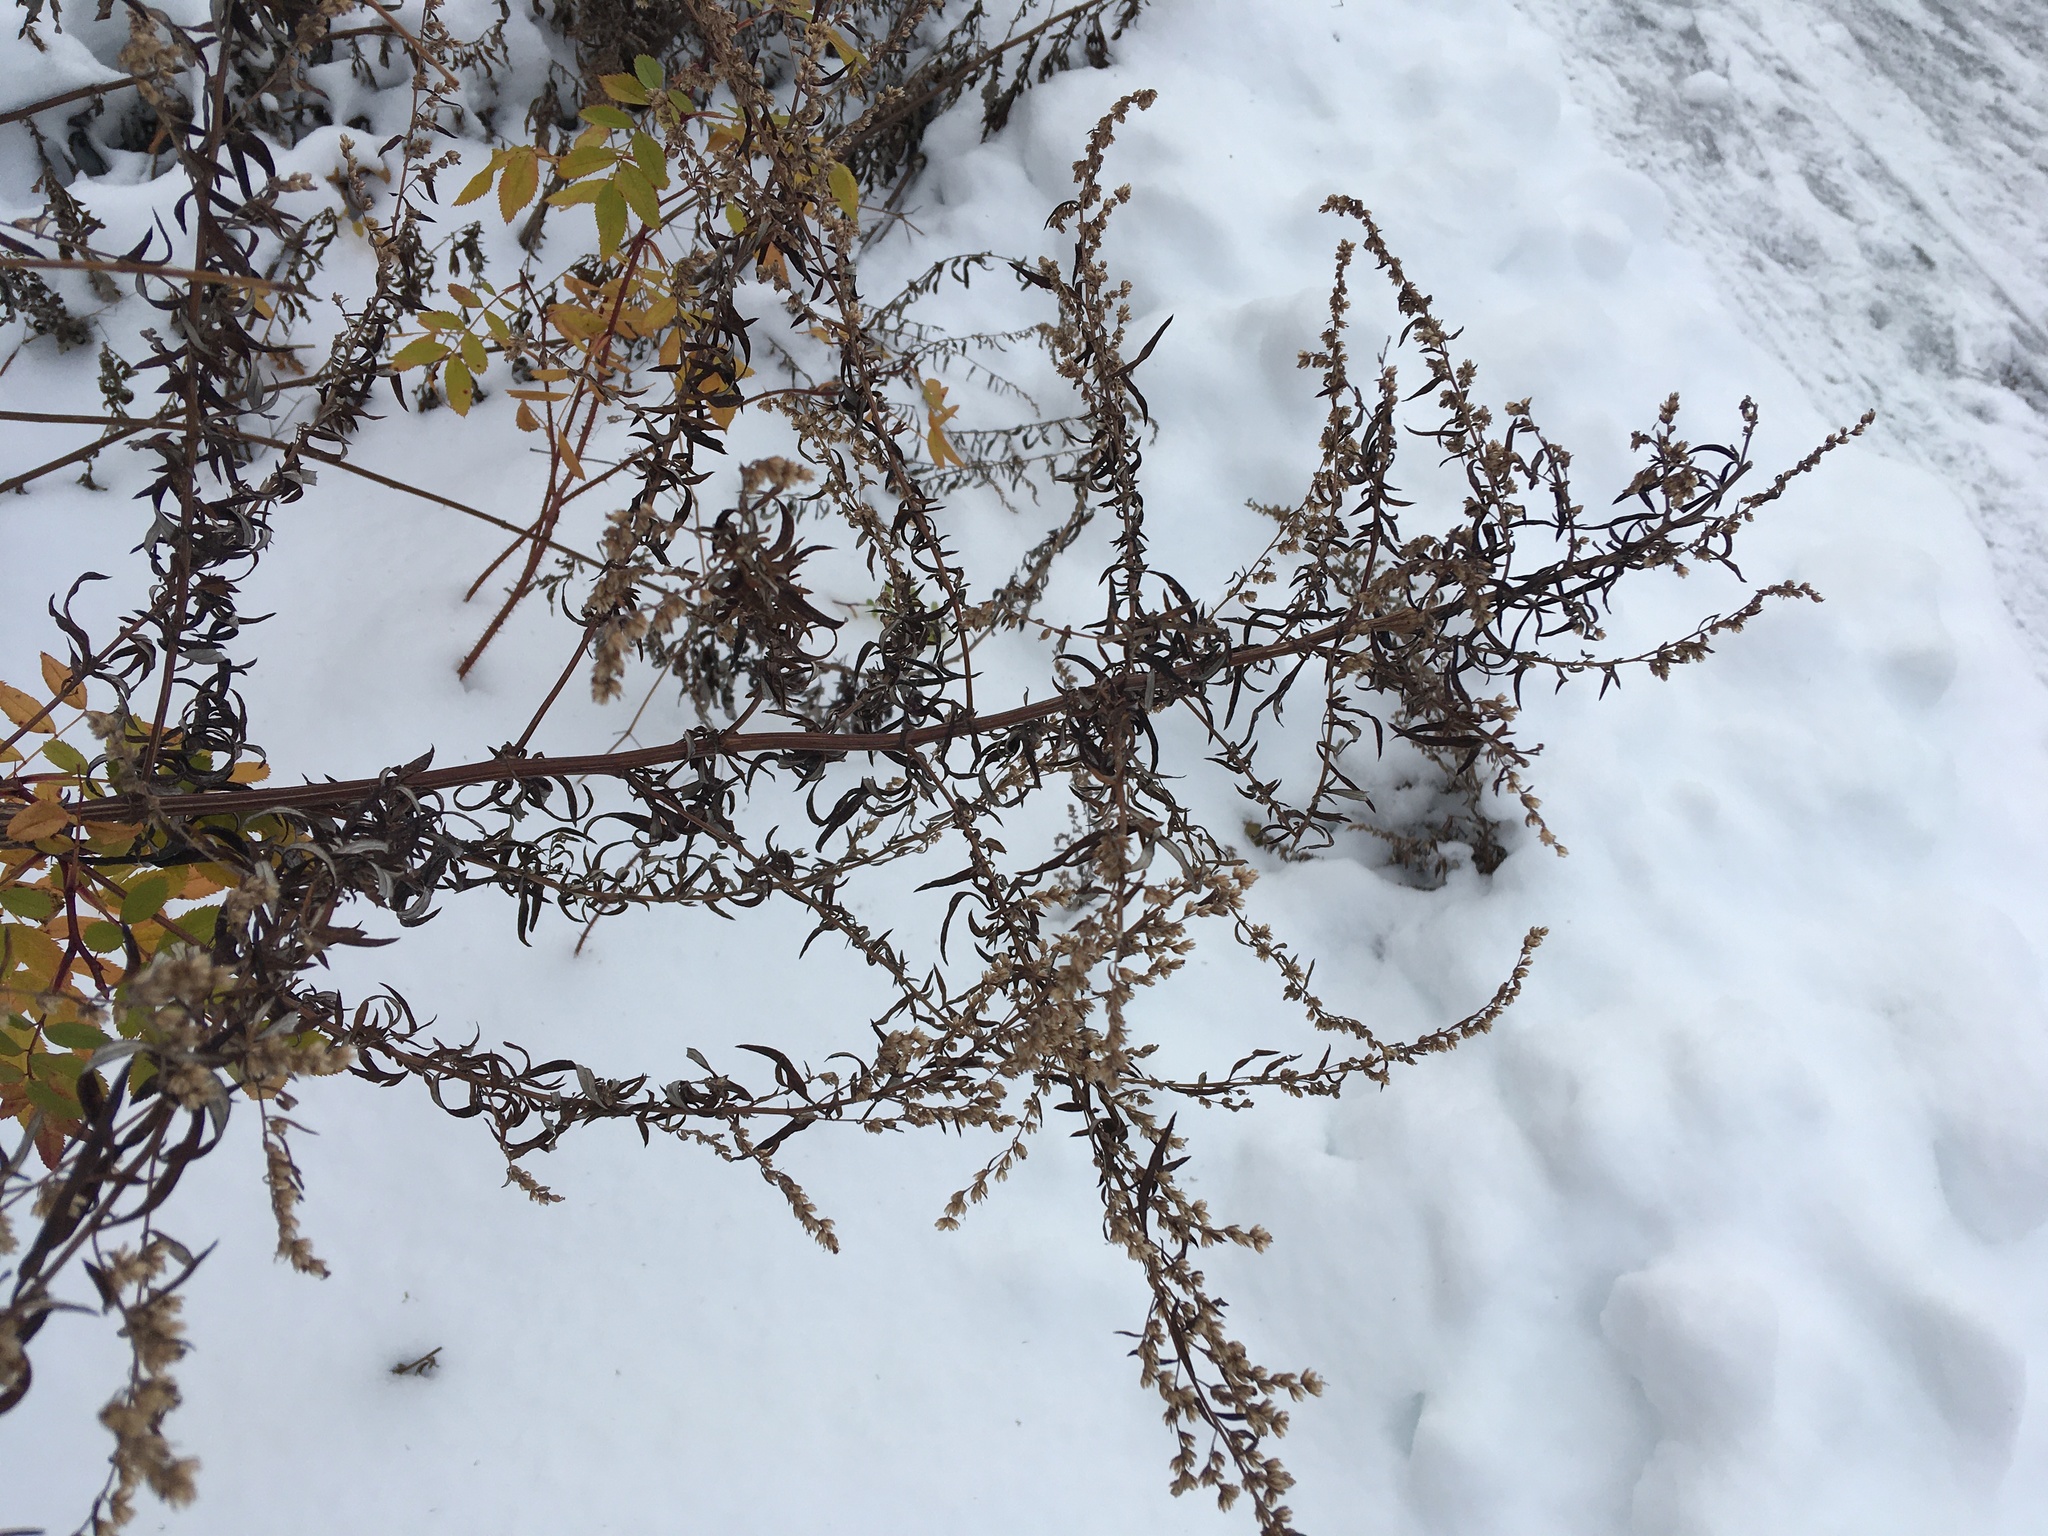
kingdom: Plantae
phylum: Tracheophyta
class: Magnoliopsida
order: Asterales
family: Asteraceae
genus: Artemisia
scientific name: Artemisia vulgaris
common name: Mugwort
